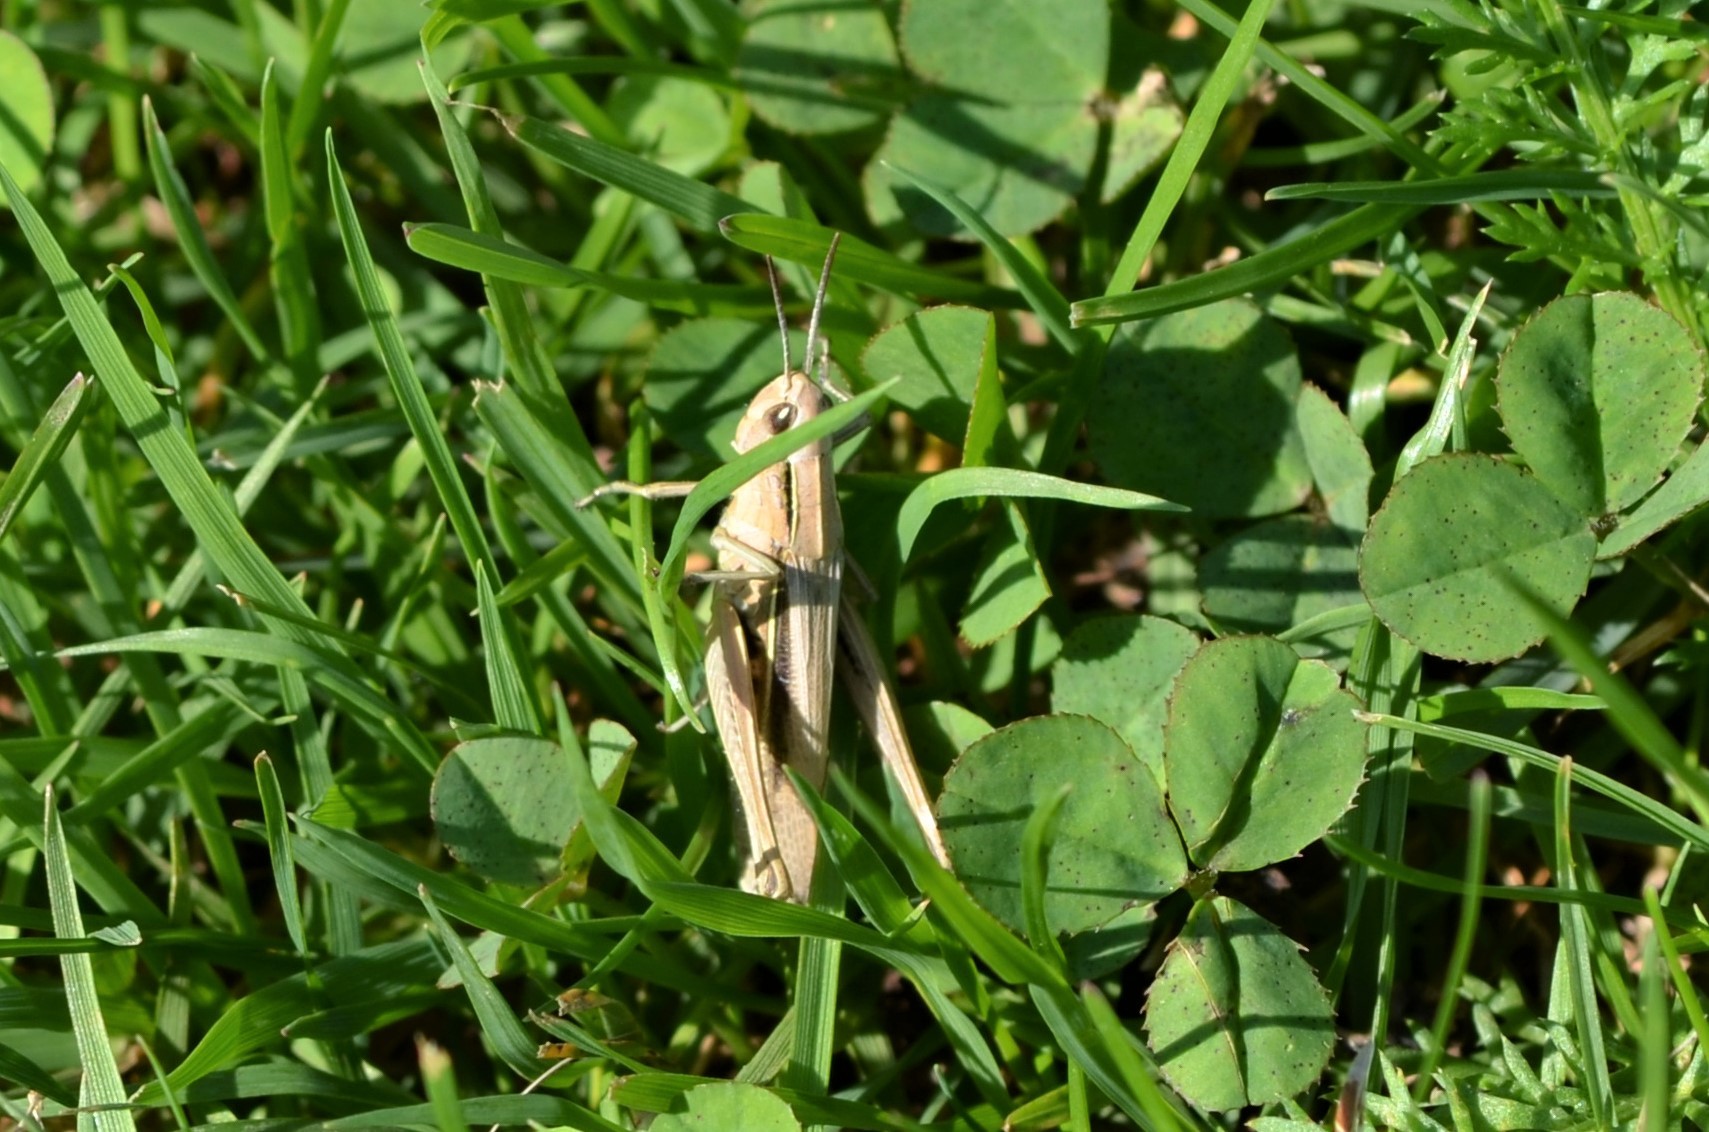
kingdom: Animalia
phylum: Arthropoda
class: Insecta
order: Orthoptera
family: Acrididae
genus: Chorthippus
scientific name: Chorthippus albomarginatus
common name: Lesser marsh grasshopper
